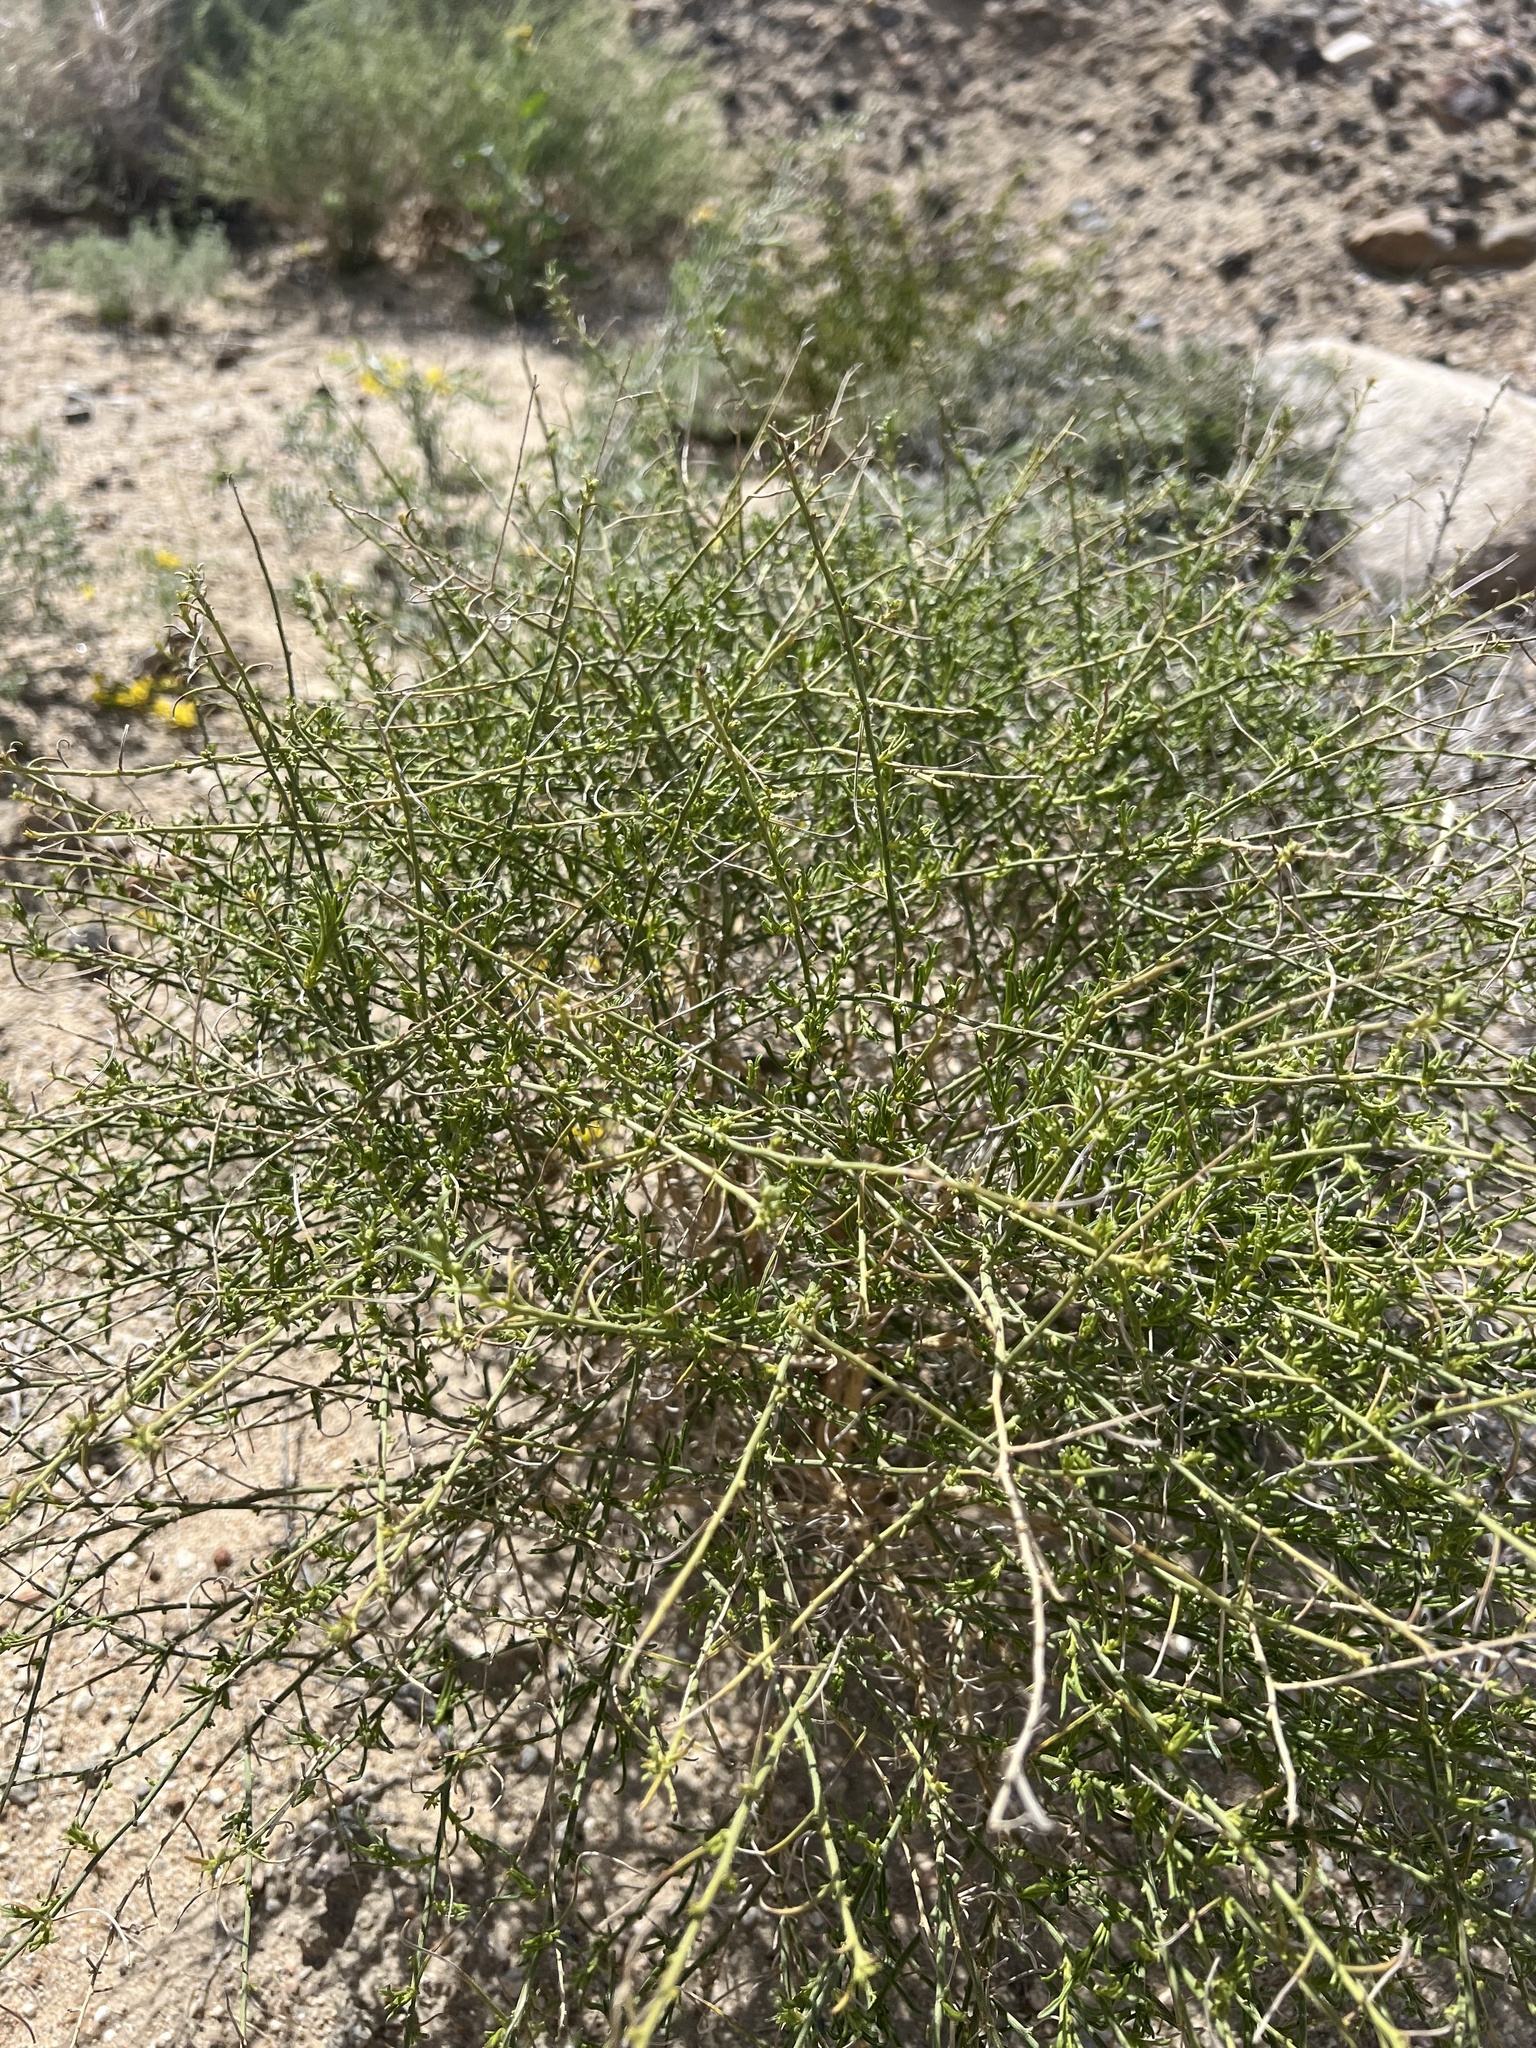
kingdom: Plantae
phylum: Tracheophyta
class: Magnoliopsida
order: Asterales
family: Asteraceae
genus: Ambrosia
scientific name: Ambrosia salsola
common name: Burrobrush
